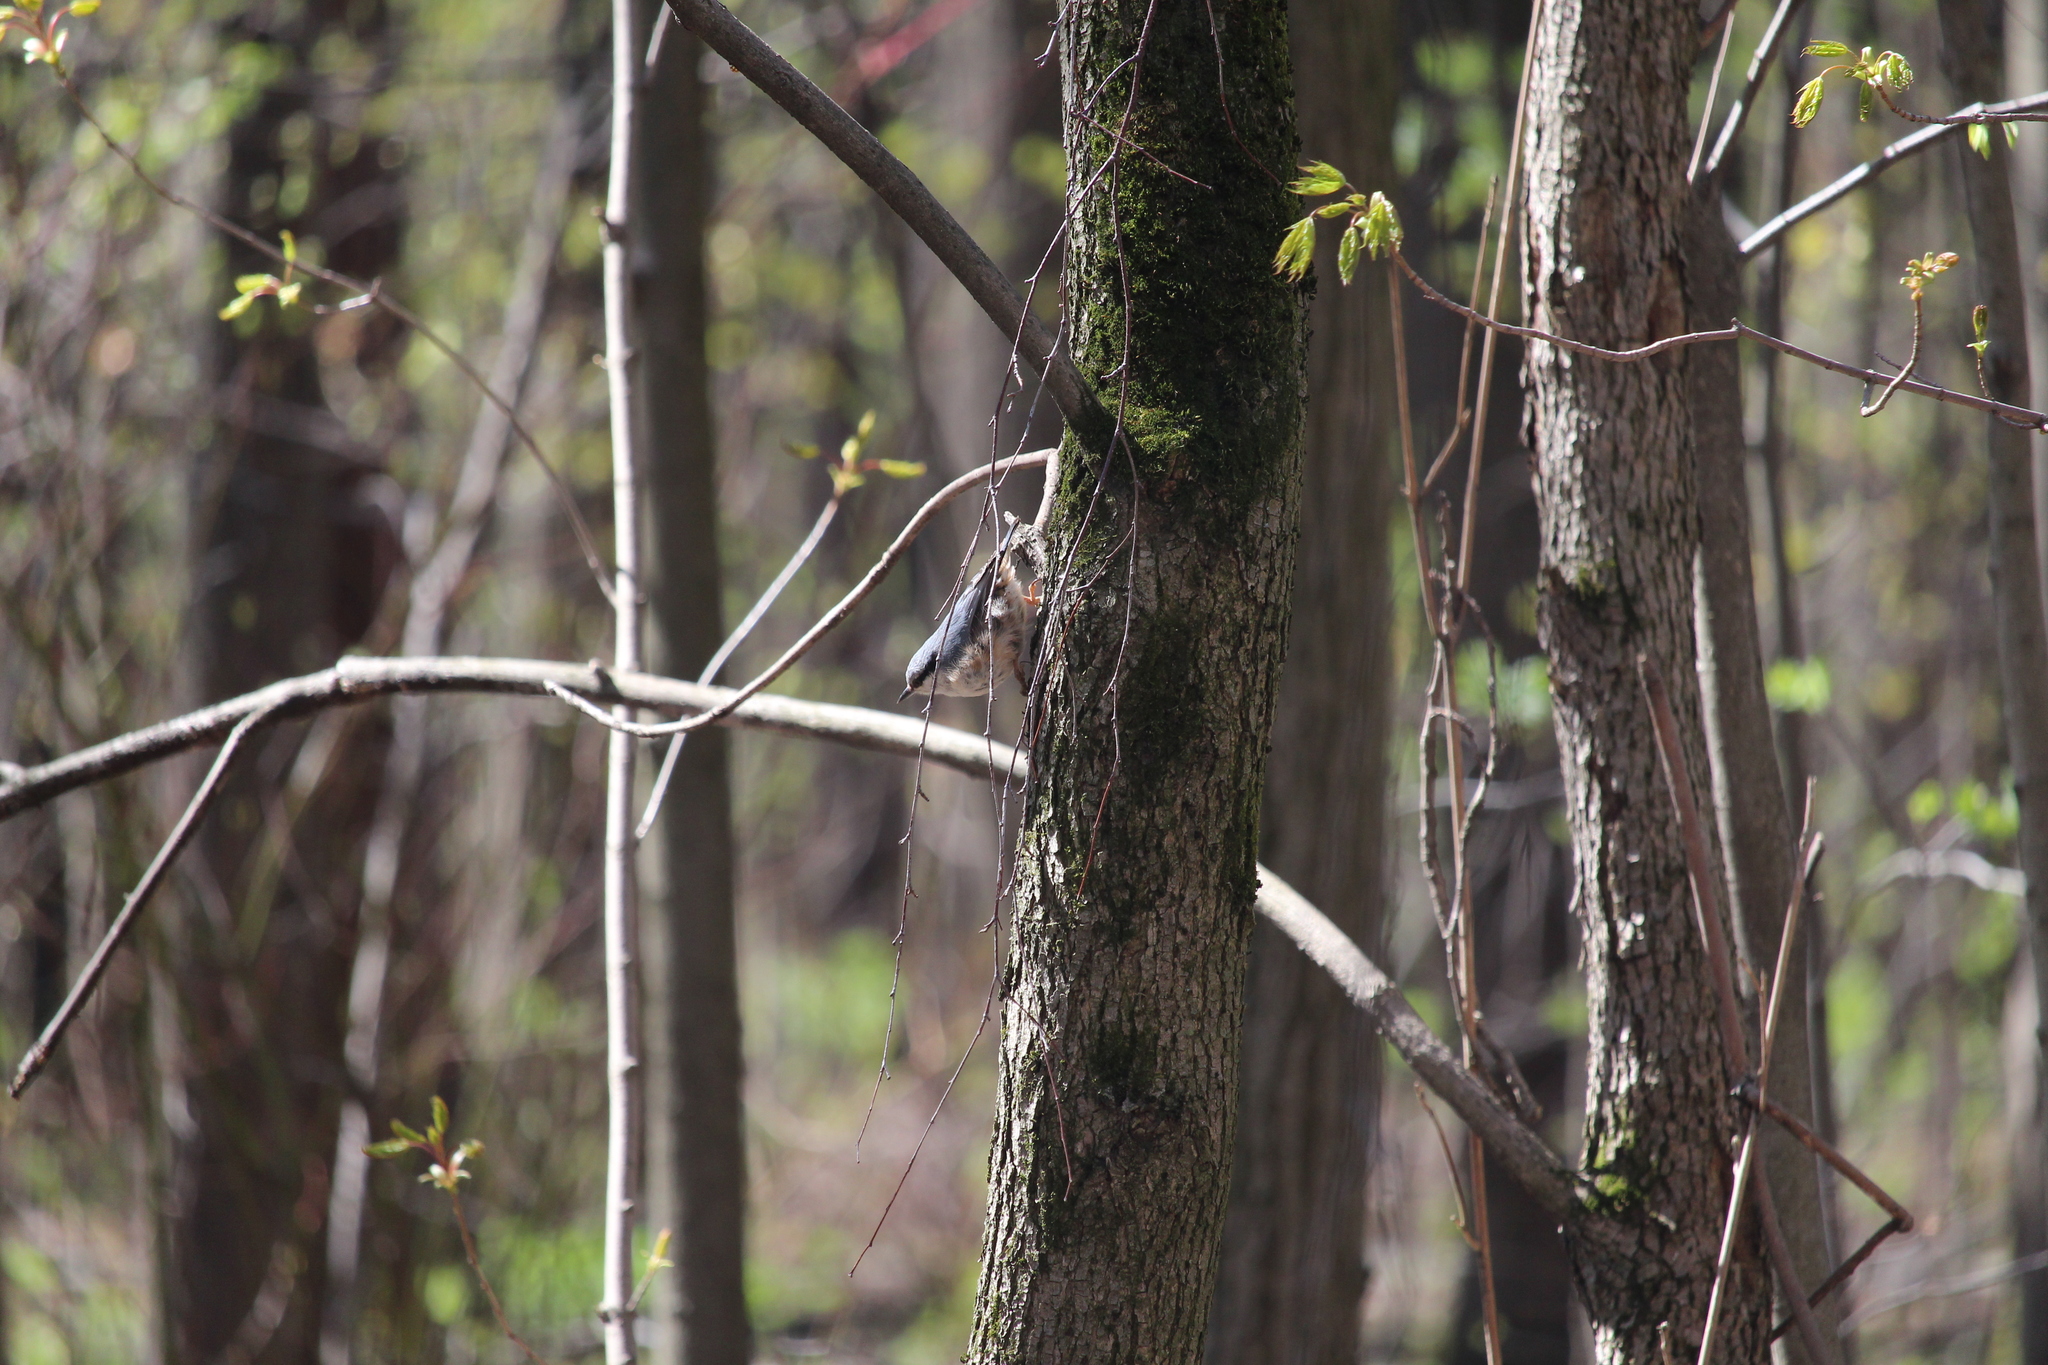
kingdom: Animalia
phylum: Chordata
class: Aves
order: Passeriformes
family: Sittidae
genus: Sitta
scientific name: Sitta europaea
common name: Eurasian nuthatch
